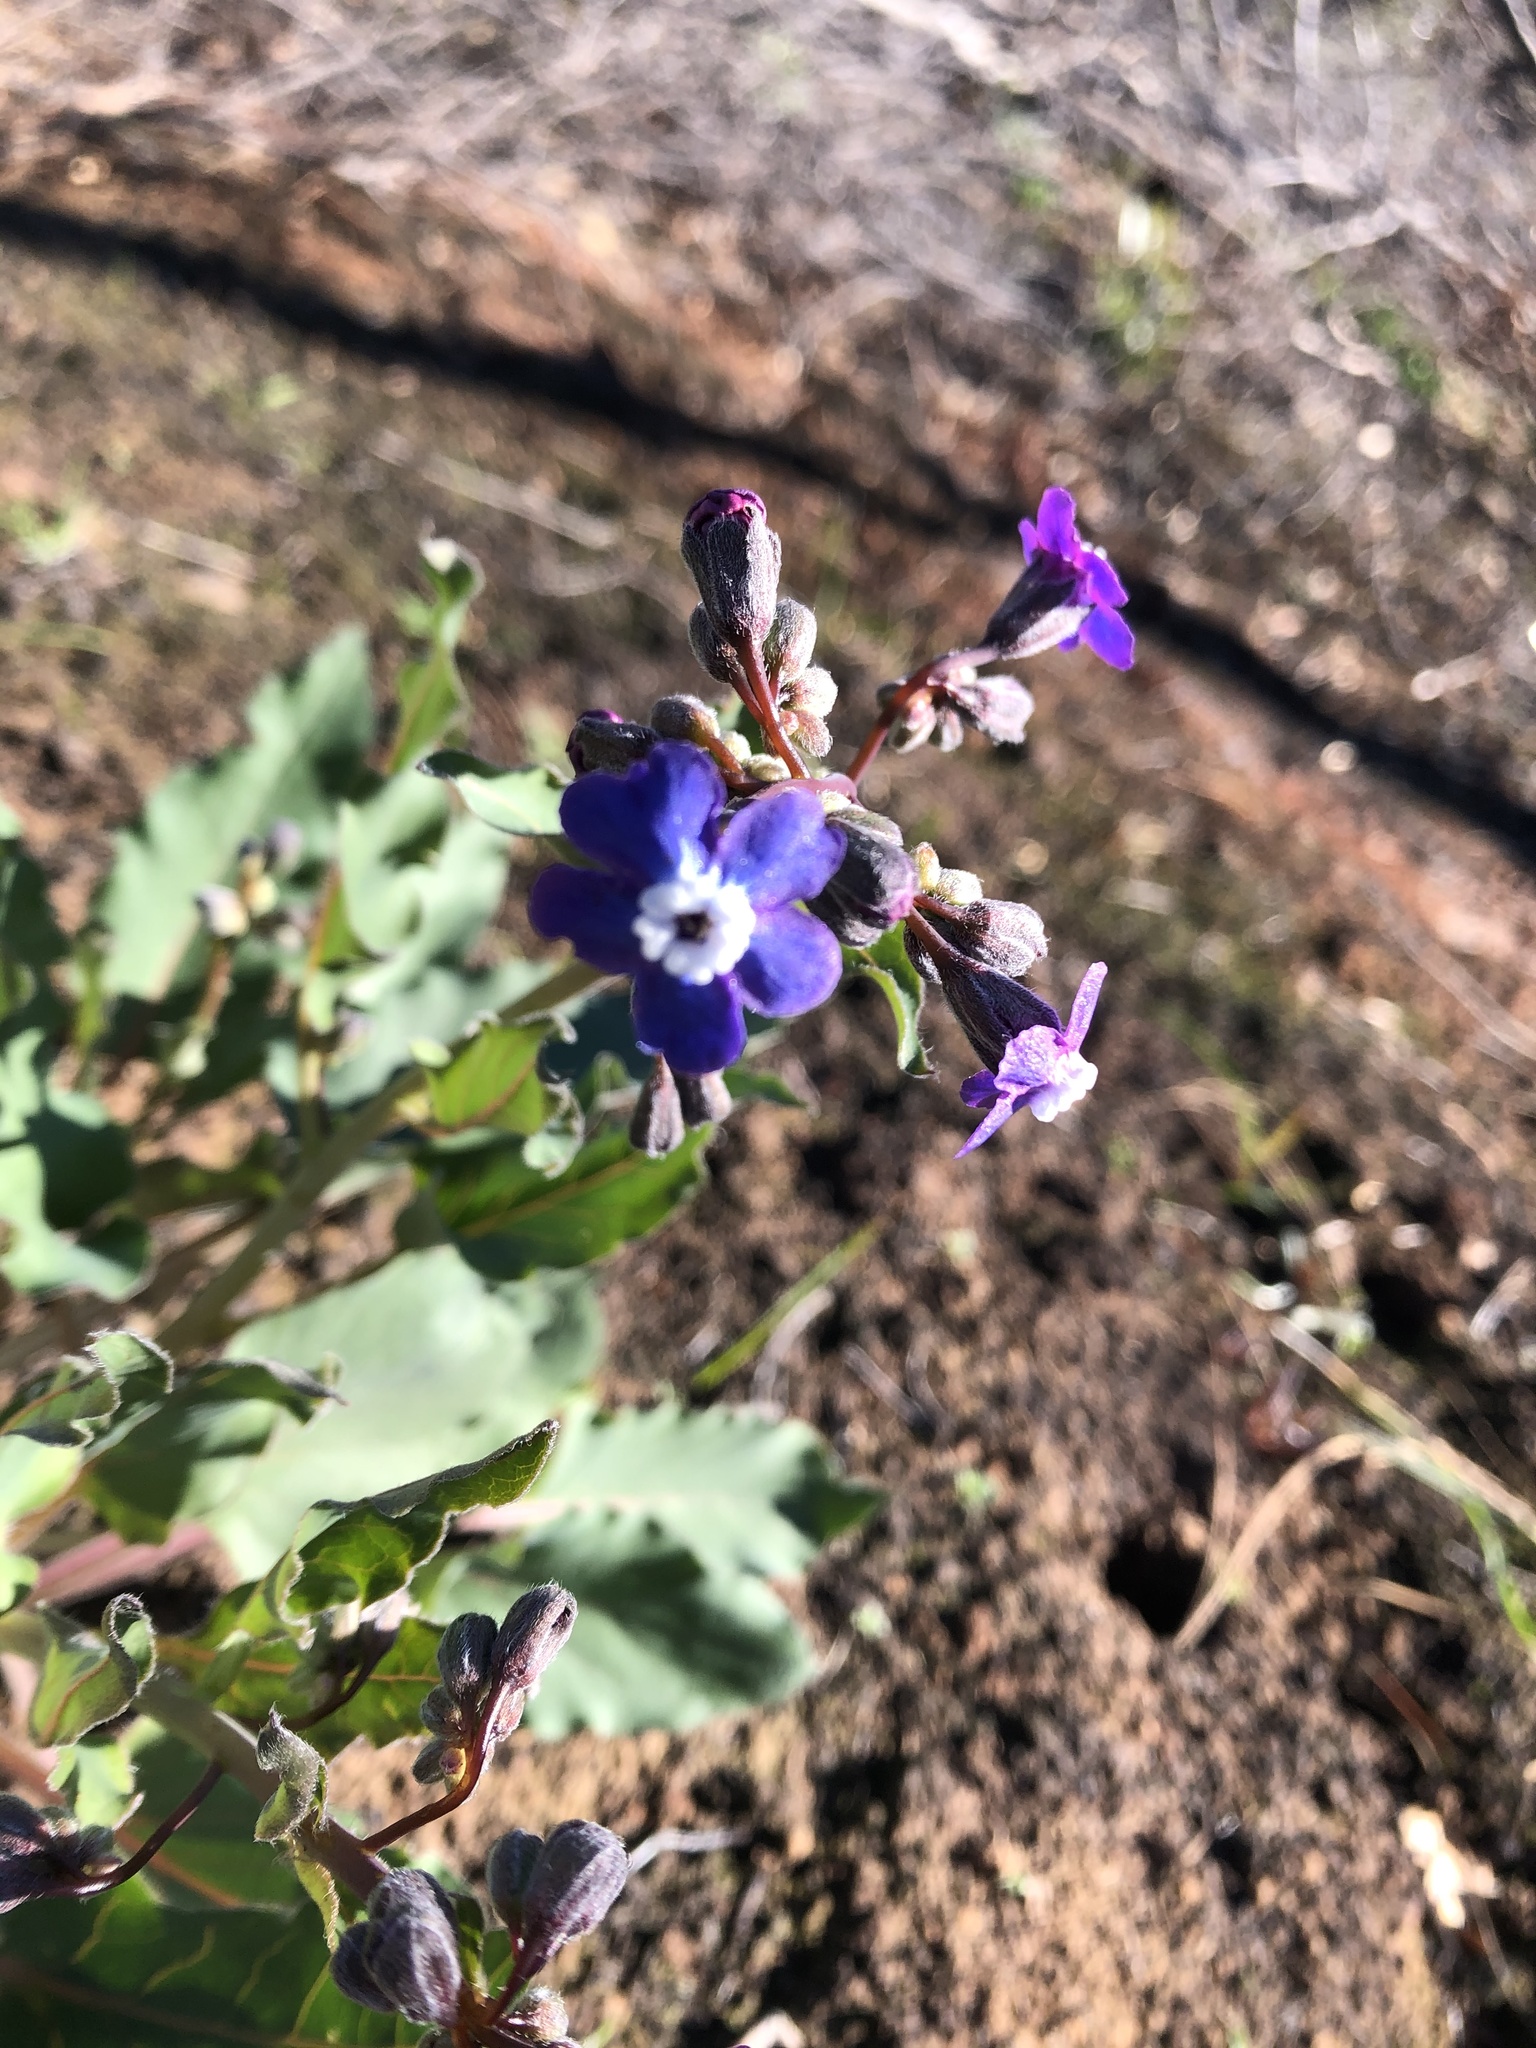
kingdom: Plantae
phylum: Tracheophyta
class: Magnoliopsida
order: Boraginales
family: Boraginaceae
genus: Adelinia
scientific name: Adelinia grande
